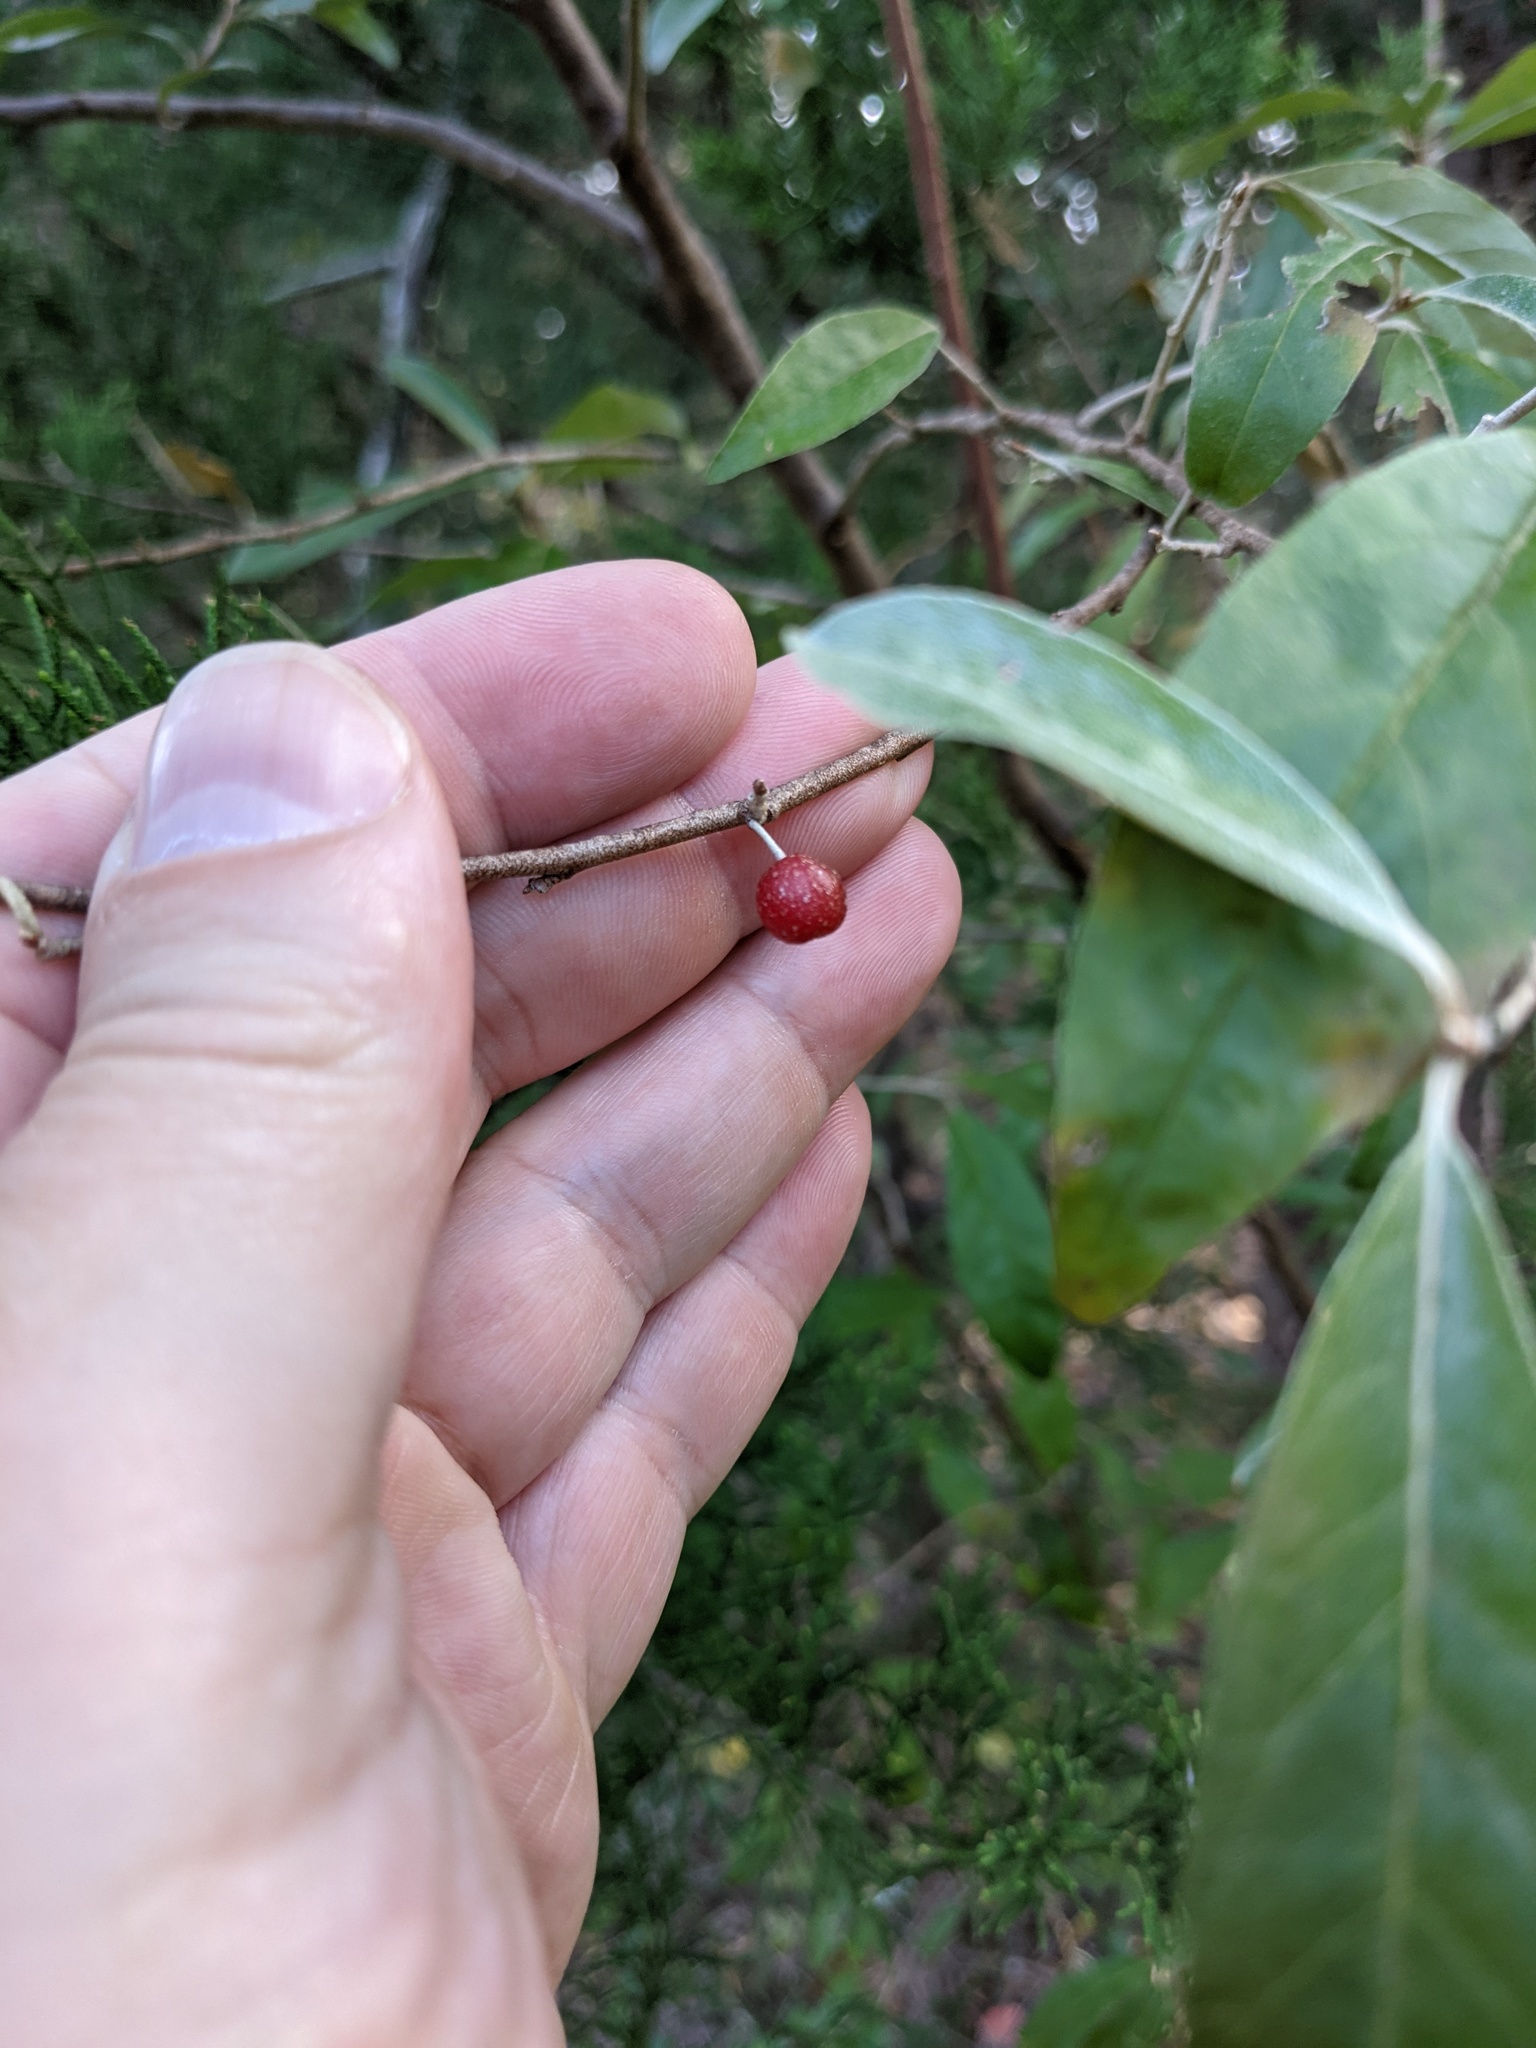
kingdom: Plantae
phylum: Tracheophyta
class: Magnoliopsida
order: Rosales
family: Elaeagnaceae
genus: Elaeagnus
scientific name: Elaeagnus umbellata
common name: Autumn olive
